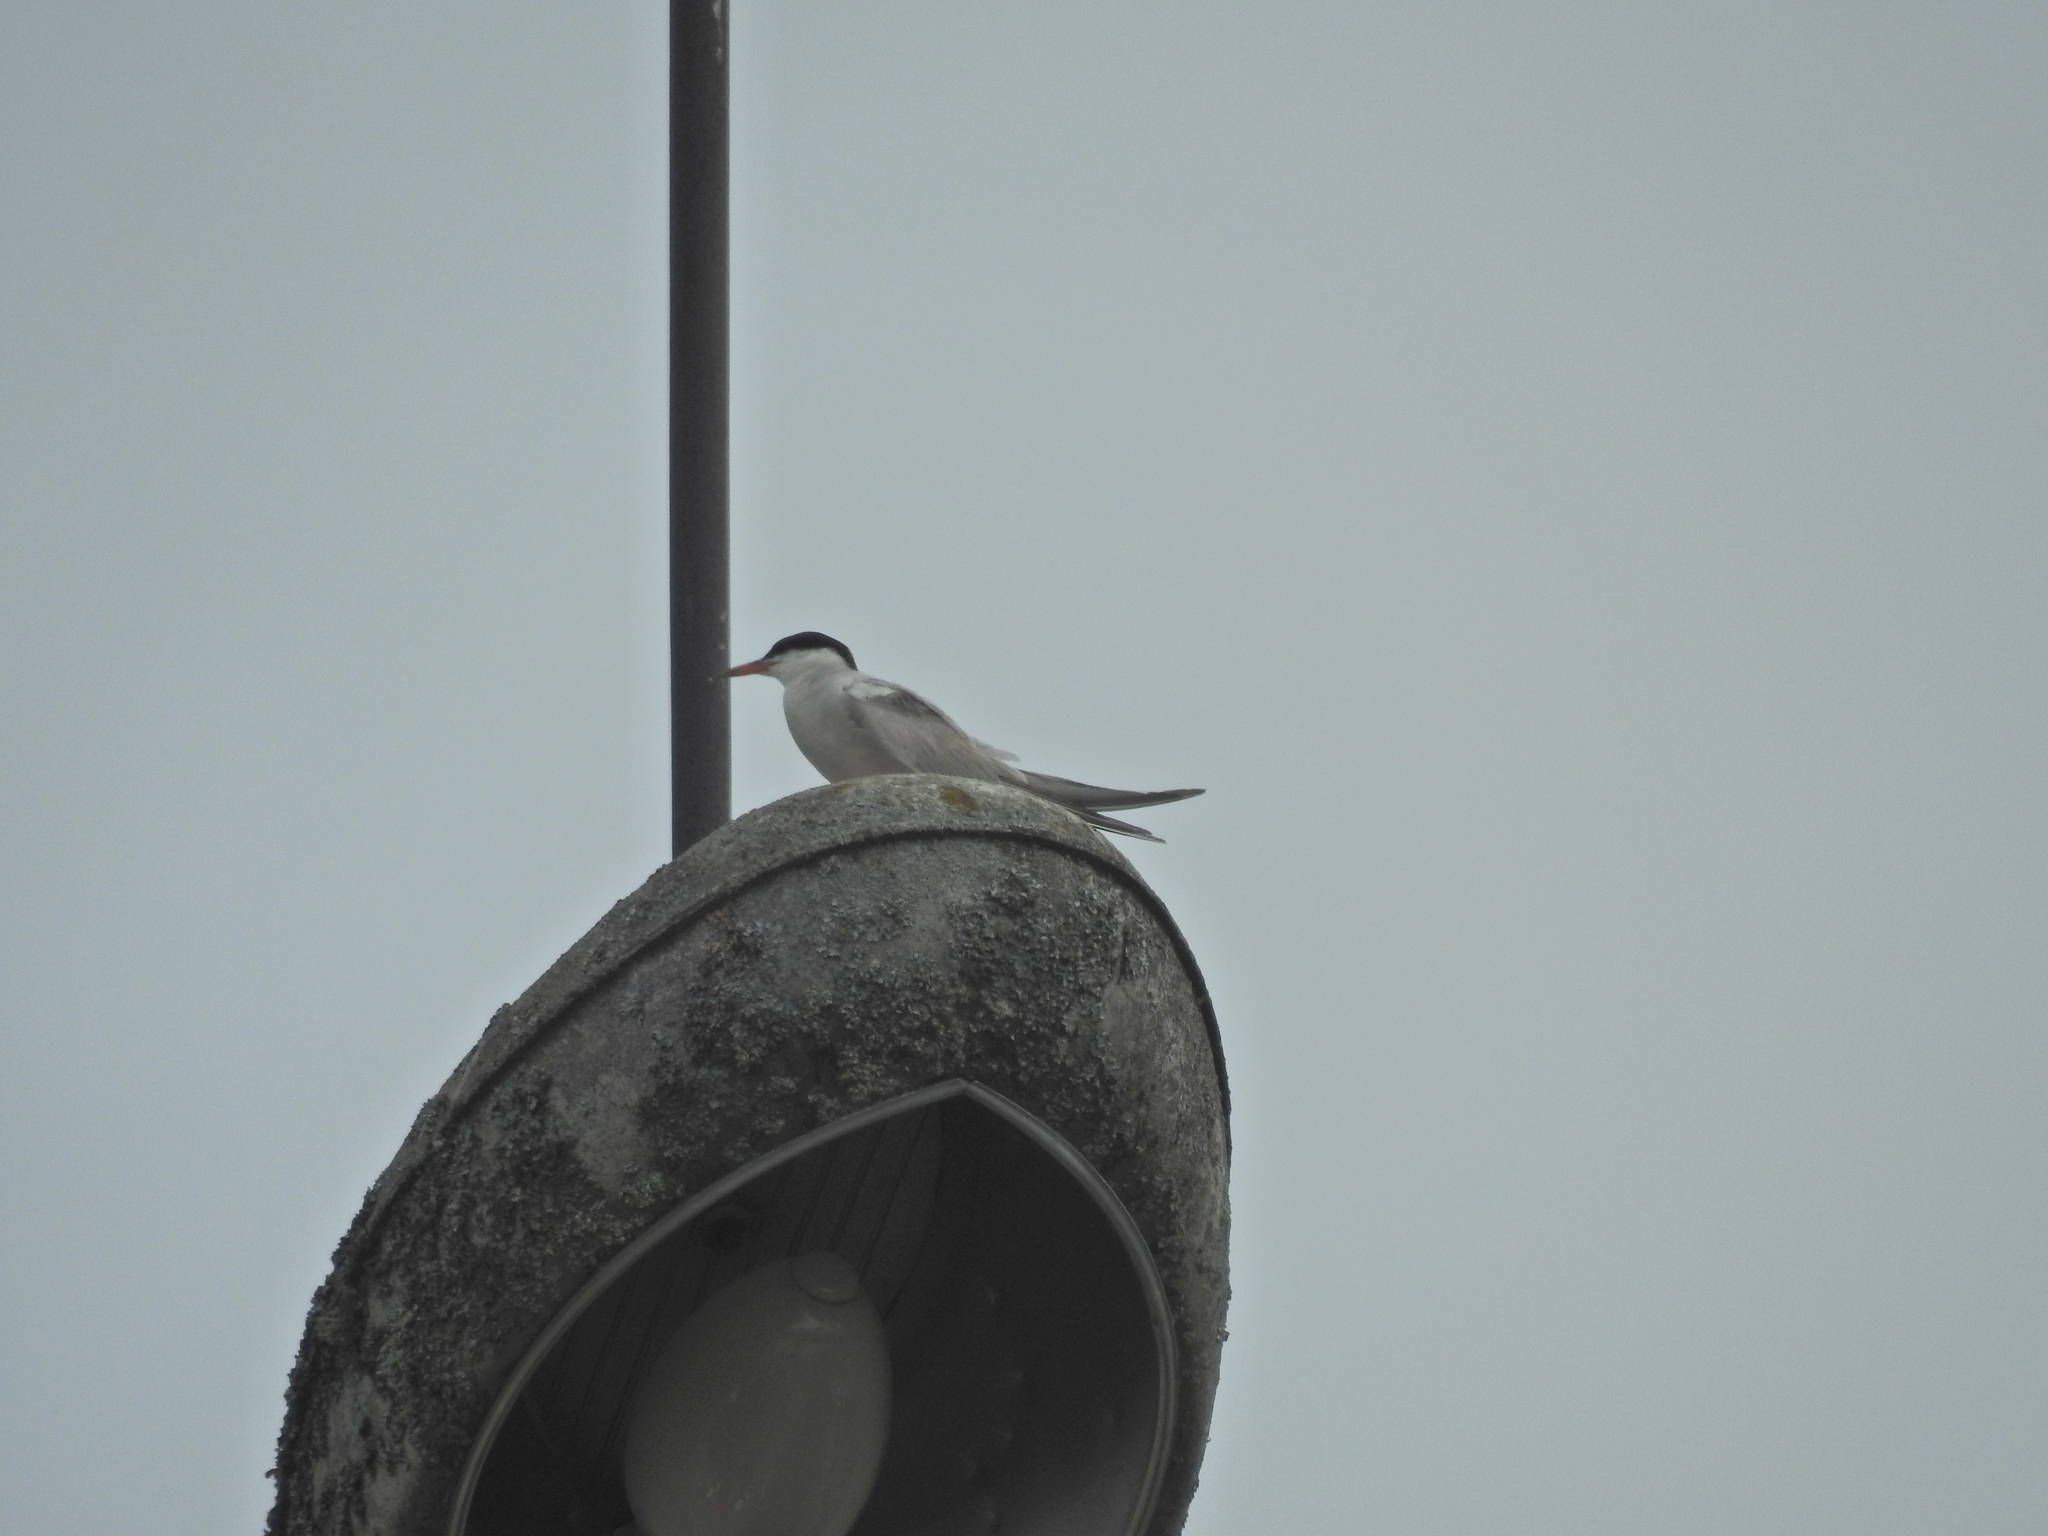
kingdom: Animalia
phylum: Chordata
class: Aves
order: Charadriiformes
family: Laridae
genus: Sterna
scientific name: Sterna hirundo
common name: Common tern
